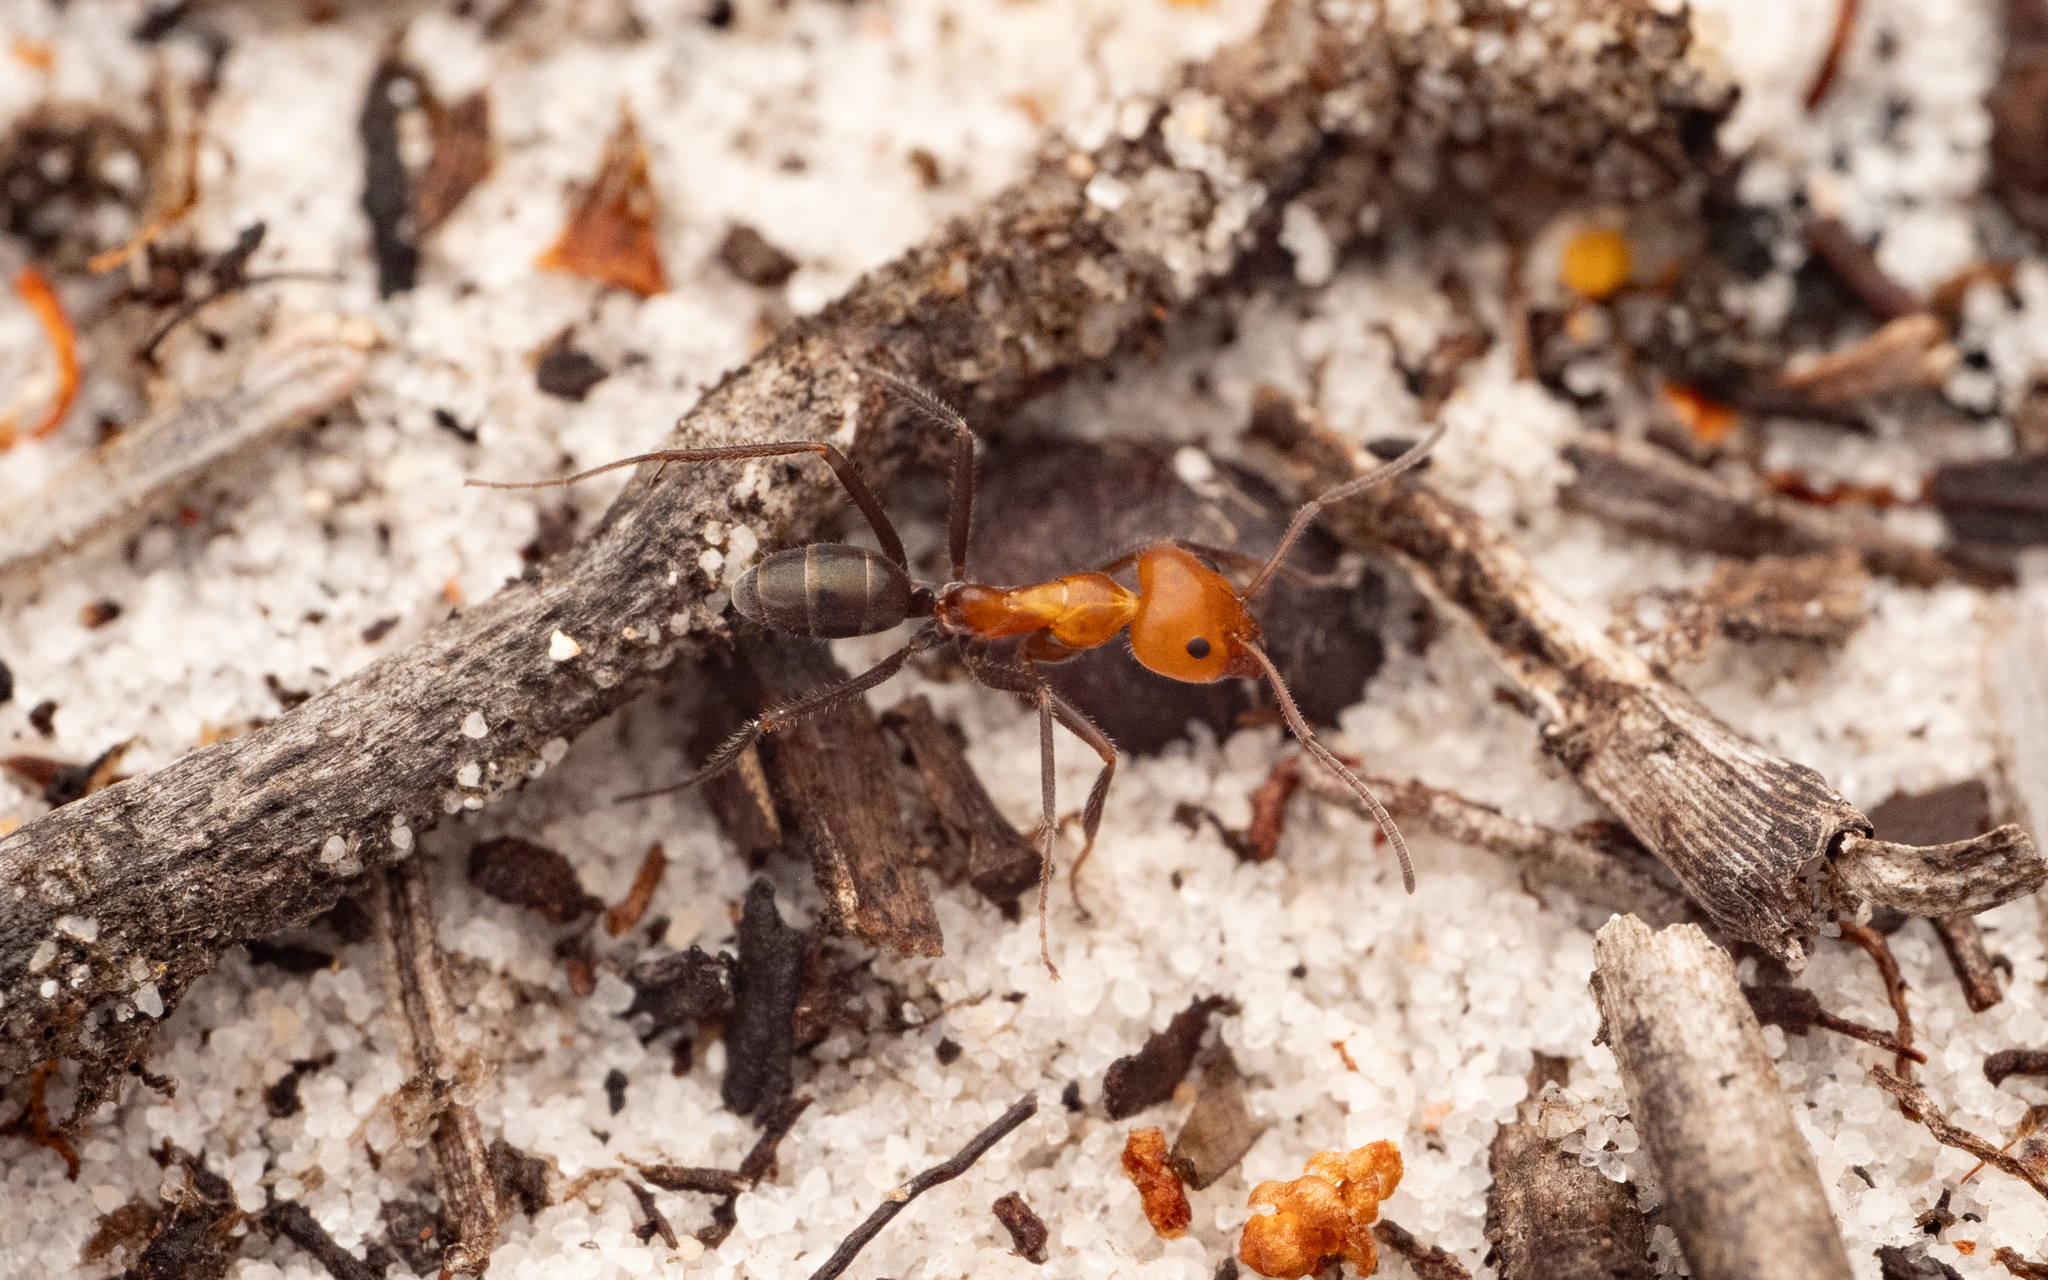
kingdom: Animalia
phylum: Arthropoda
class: Insecta
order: Hymenoptera
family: Formicidae
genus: Iridomyrmex
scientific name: Iridomyrmex discors
